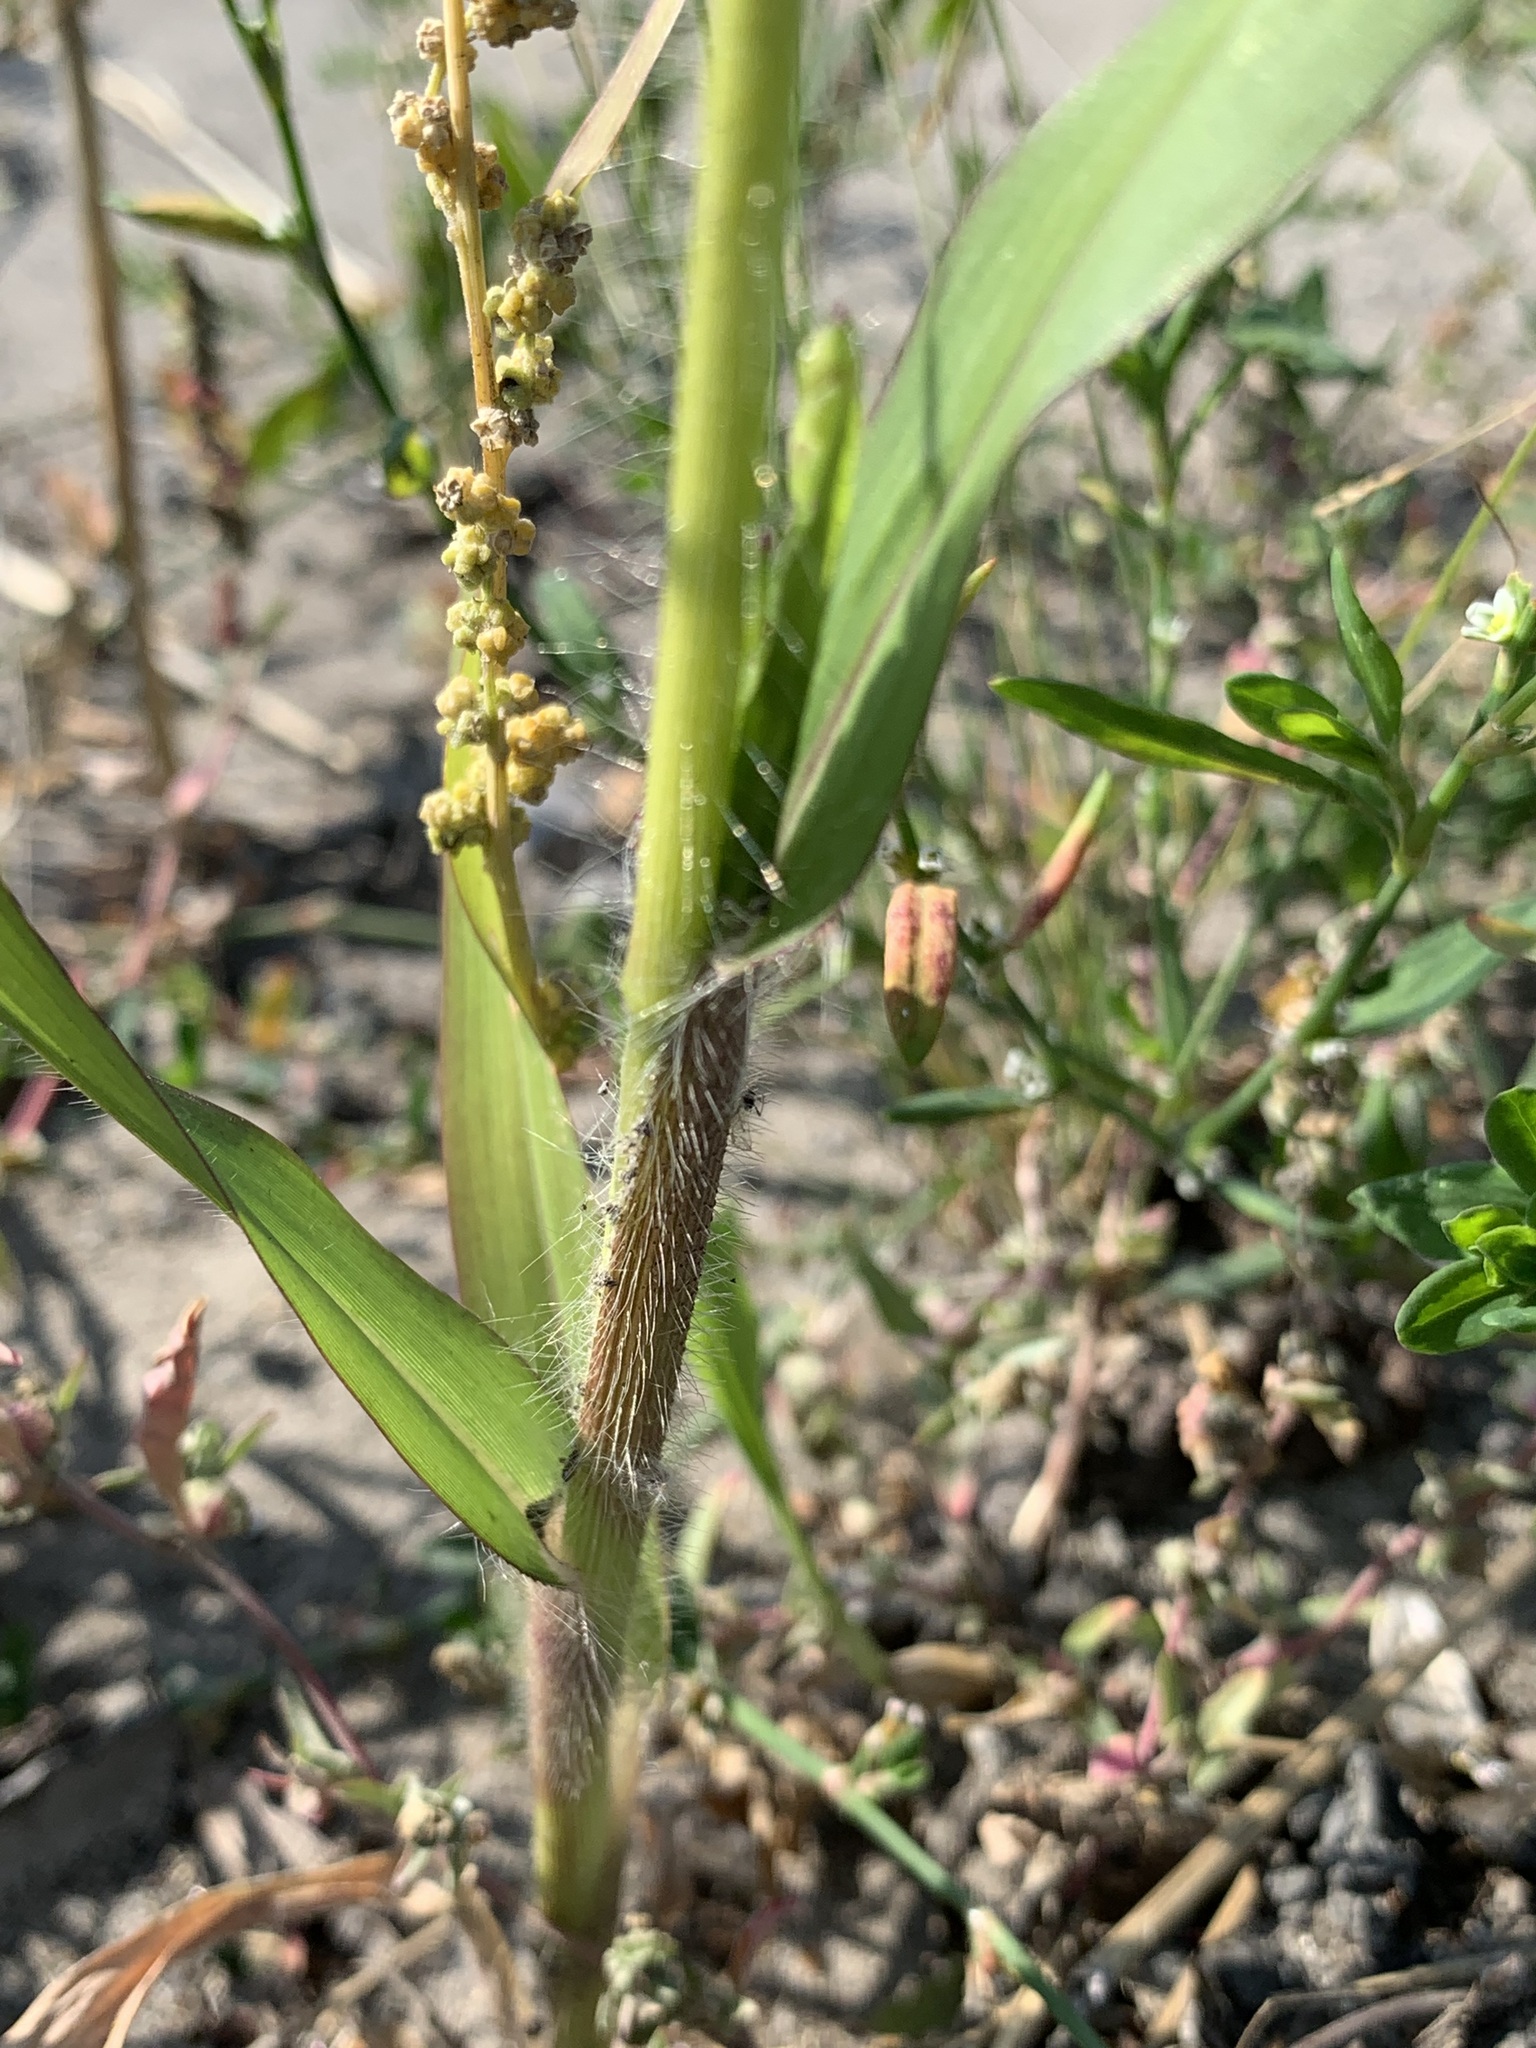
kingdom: Plantae
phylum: Tracheophyta
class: Liliopsida
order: Poales
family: Poaceae
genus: Panicum
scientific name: Panicum miliaceum
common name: Common millet
